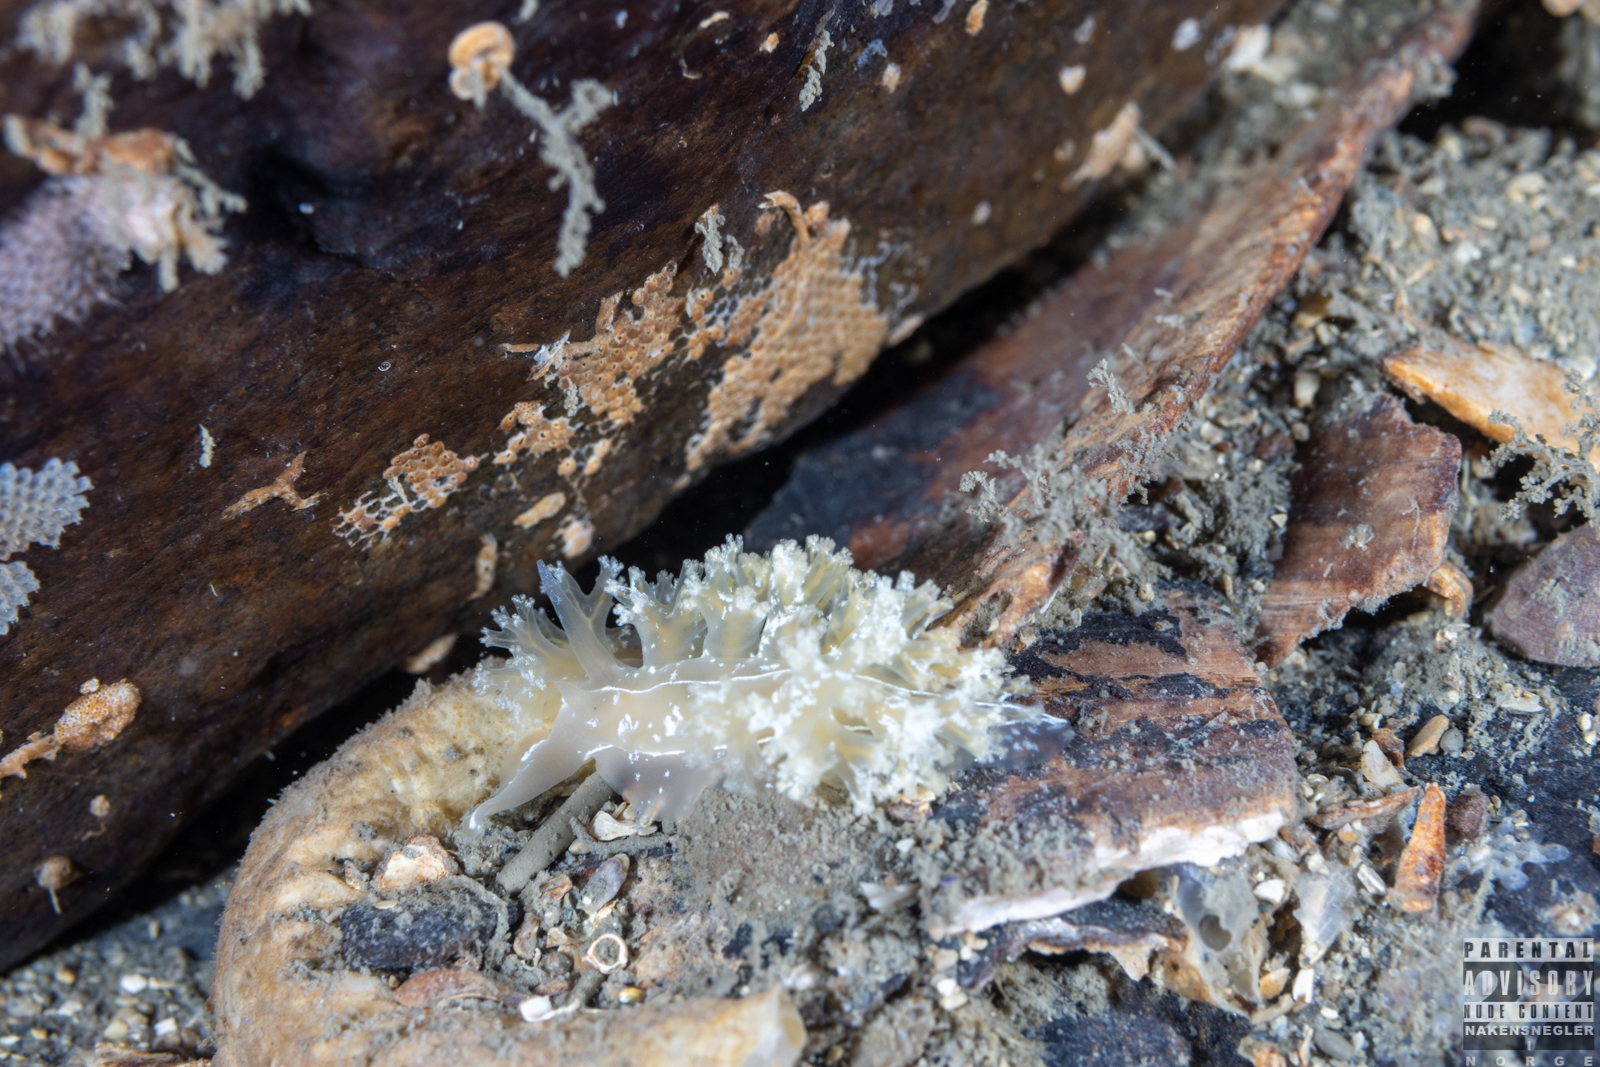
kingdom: Animalia
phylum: Mollusca
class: Gastropoda
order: Nudibranchia
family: Heroidae
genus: Hero
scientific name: Hero formosa
